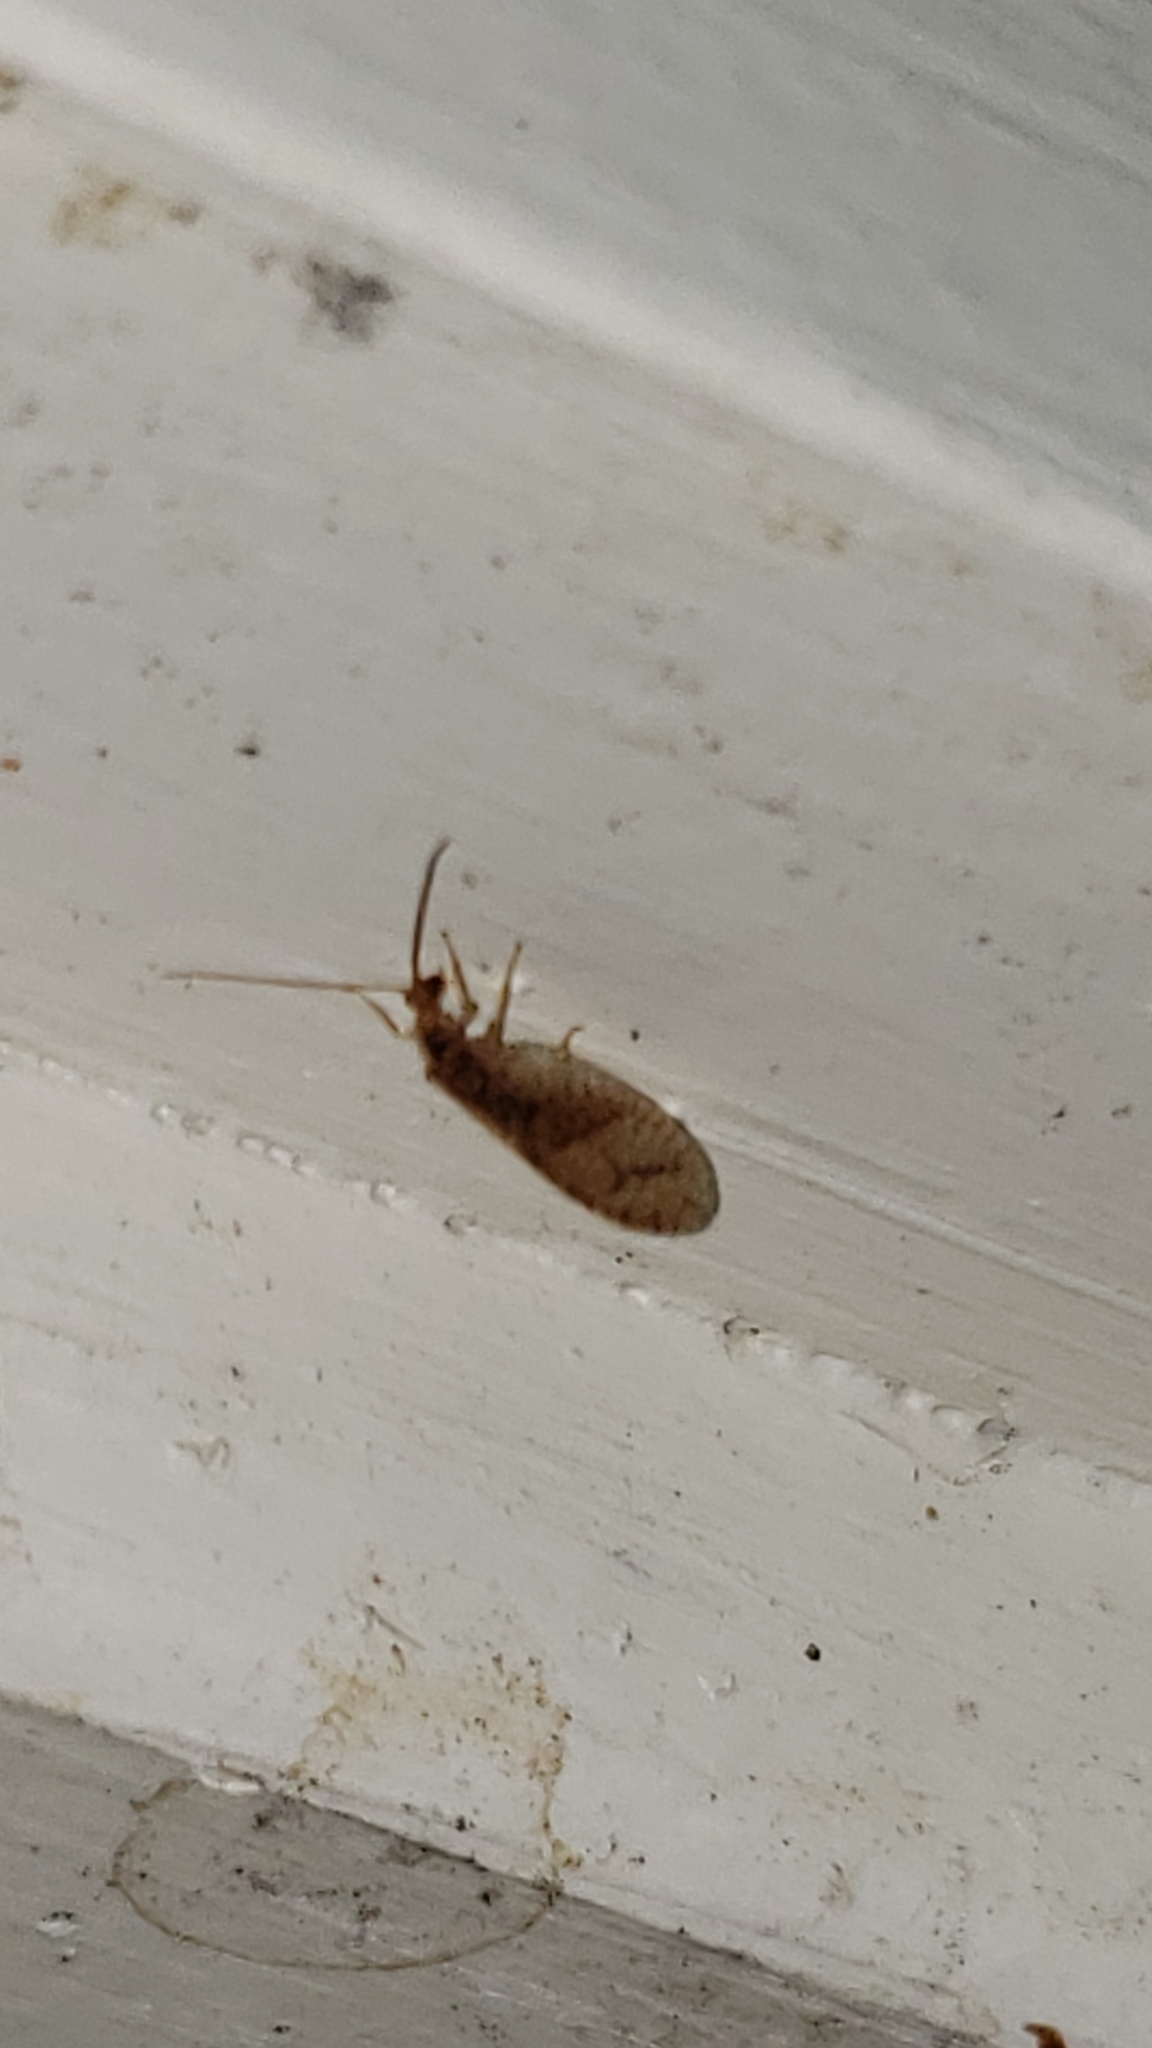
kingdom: Animalia
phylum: Arthropoda
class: Insecta
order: Neuroptera
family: Hemerobiidae
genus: Micromus
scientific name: Micromus posticus
